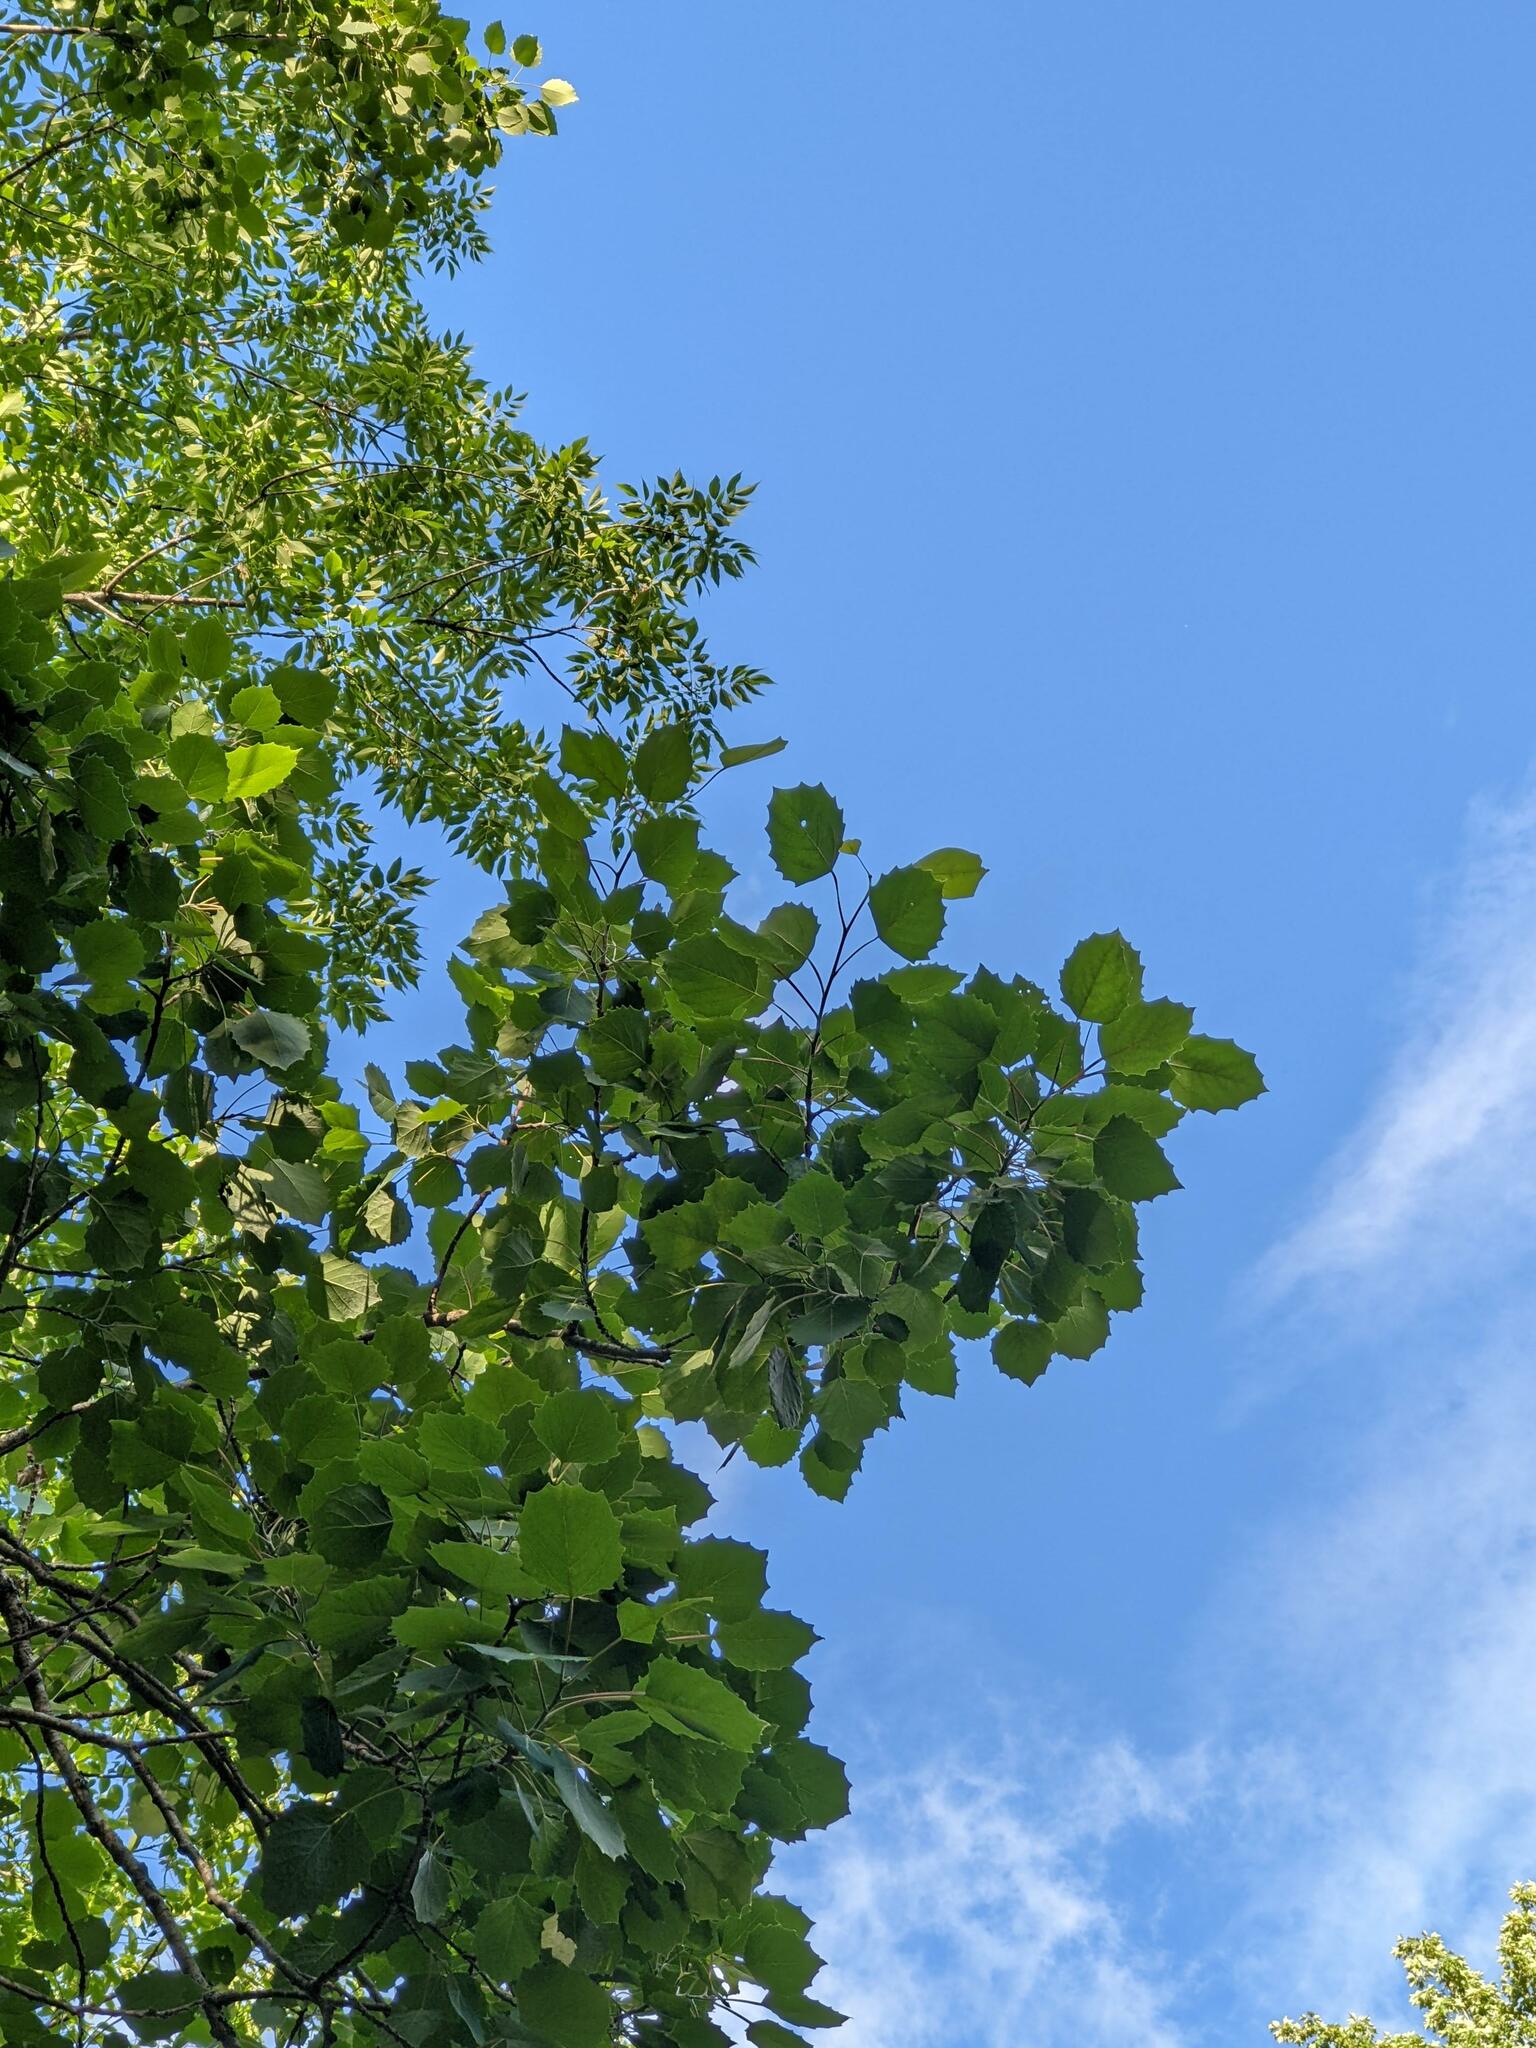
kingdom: Plantae
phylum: Tracheophyta
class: Magnoliopsida
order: Malpighiales
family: Salicaceae
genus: Populus
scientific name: Populus grandidentata
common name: Bigtooth aspen
